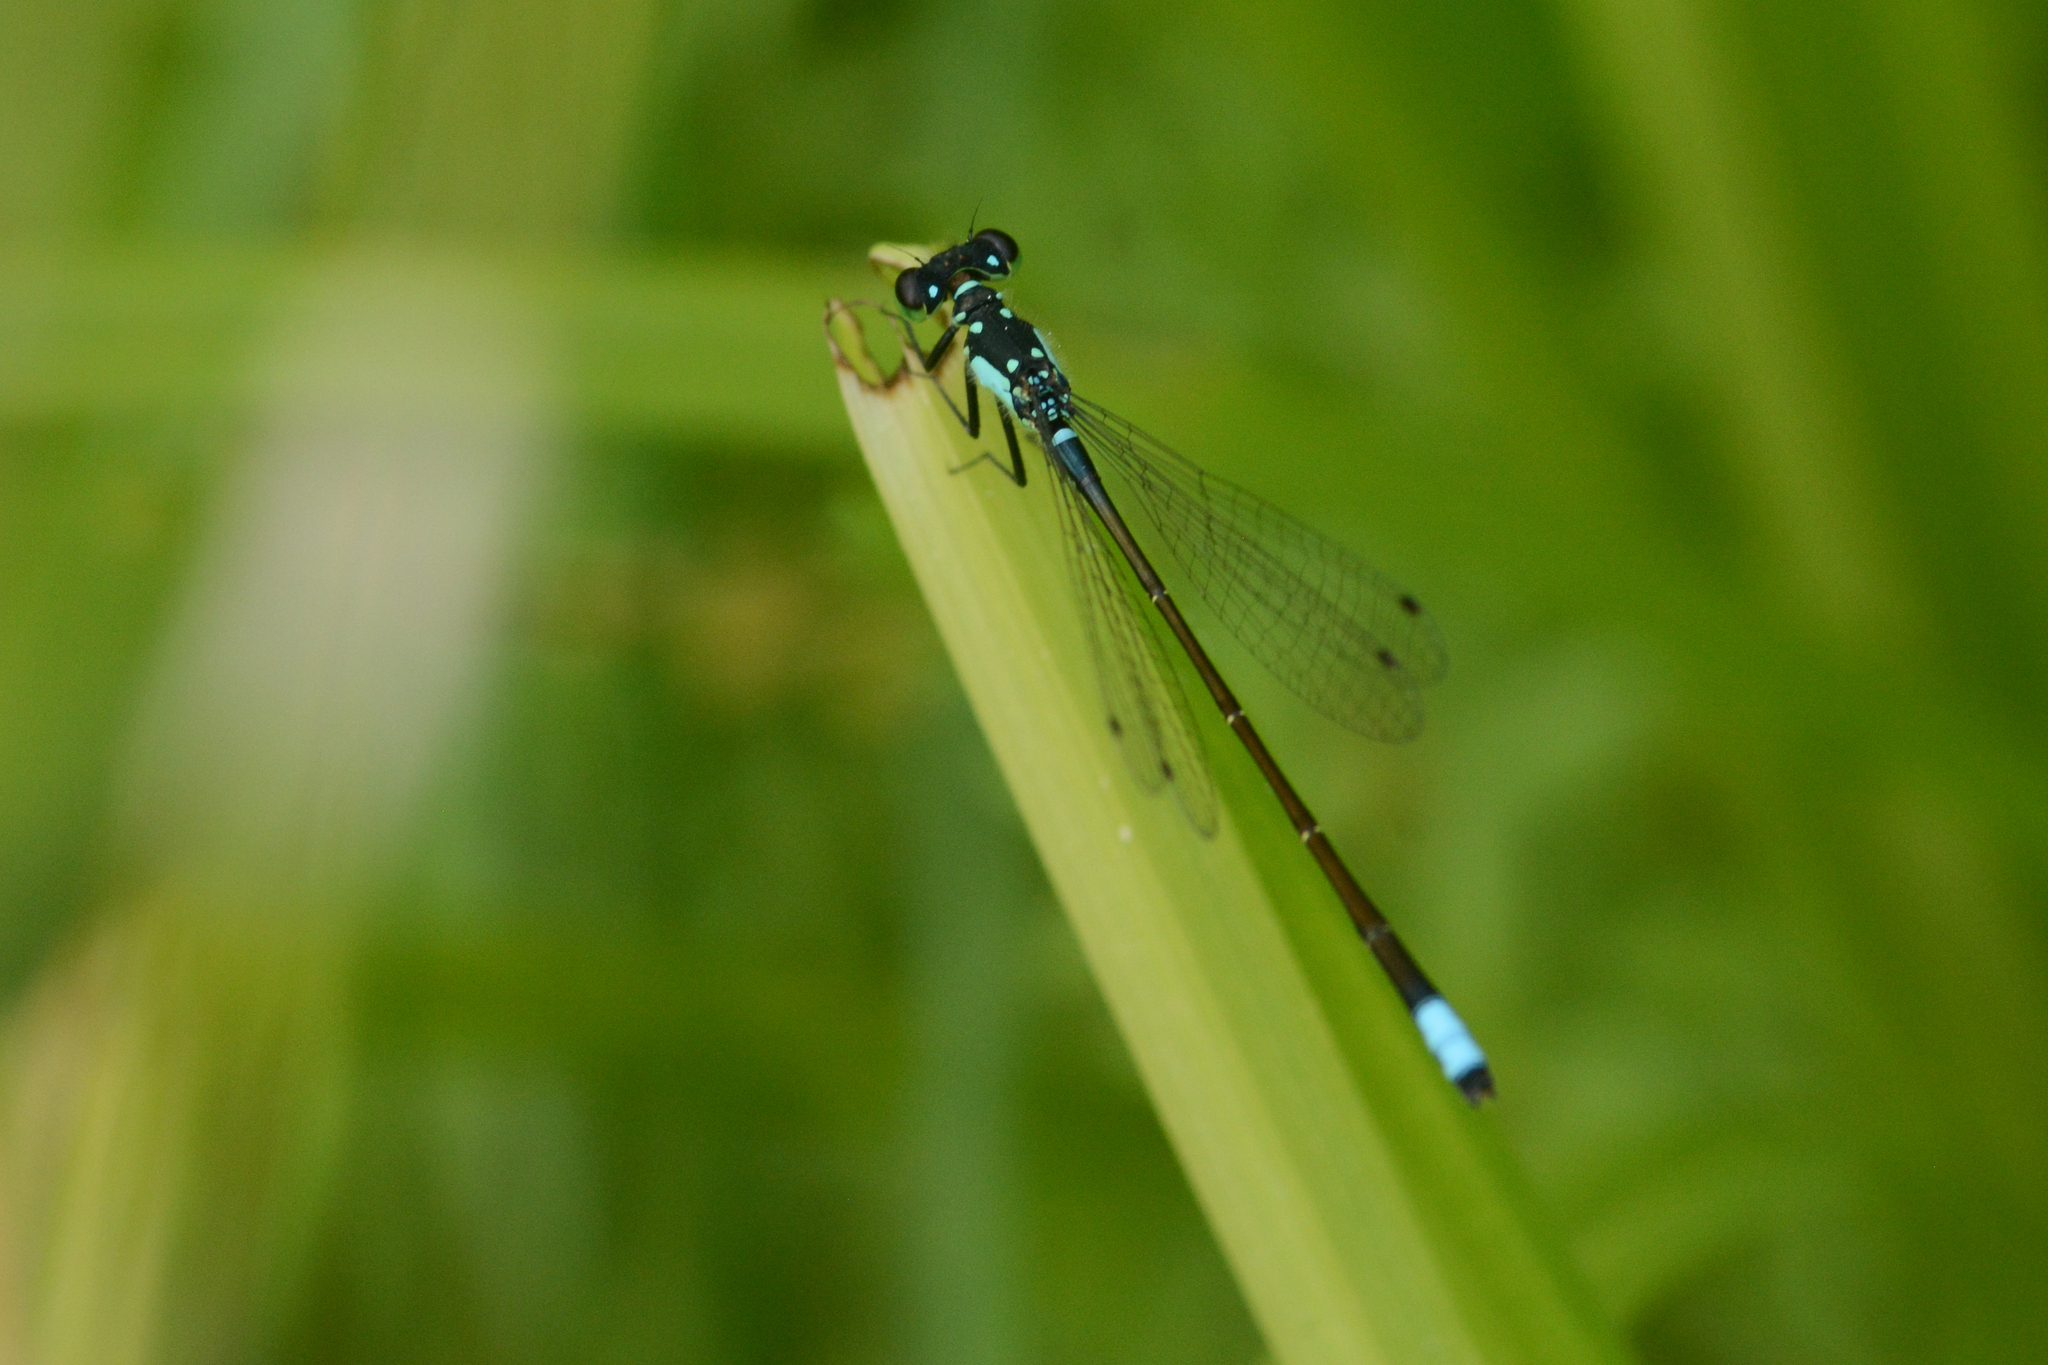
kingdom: Animalia
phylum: Arthropoda
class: Insecta
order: Odonata
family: Coenagrionidae
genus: Ischnura
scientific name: Ischnura cervula
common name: Pacific forktail
